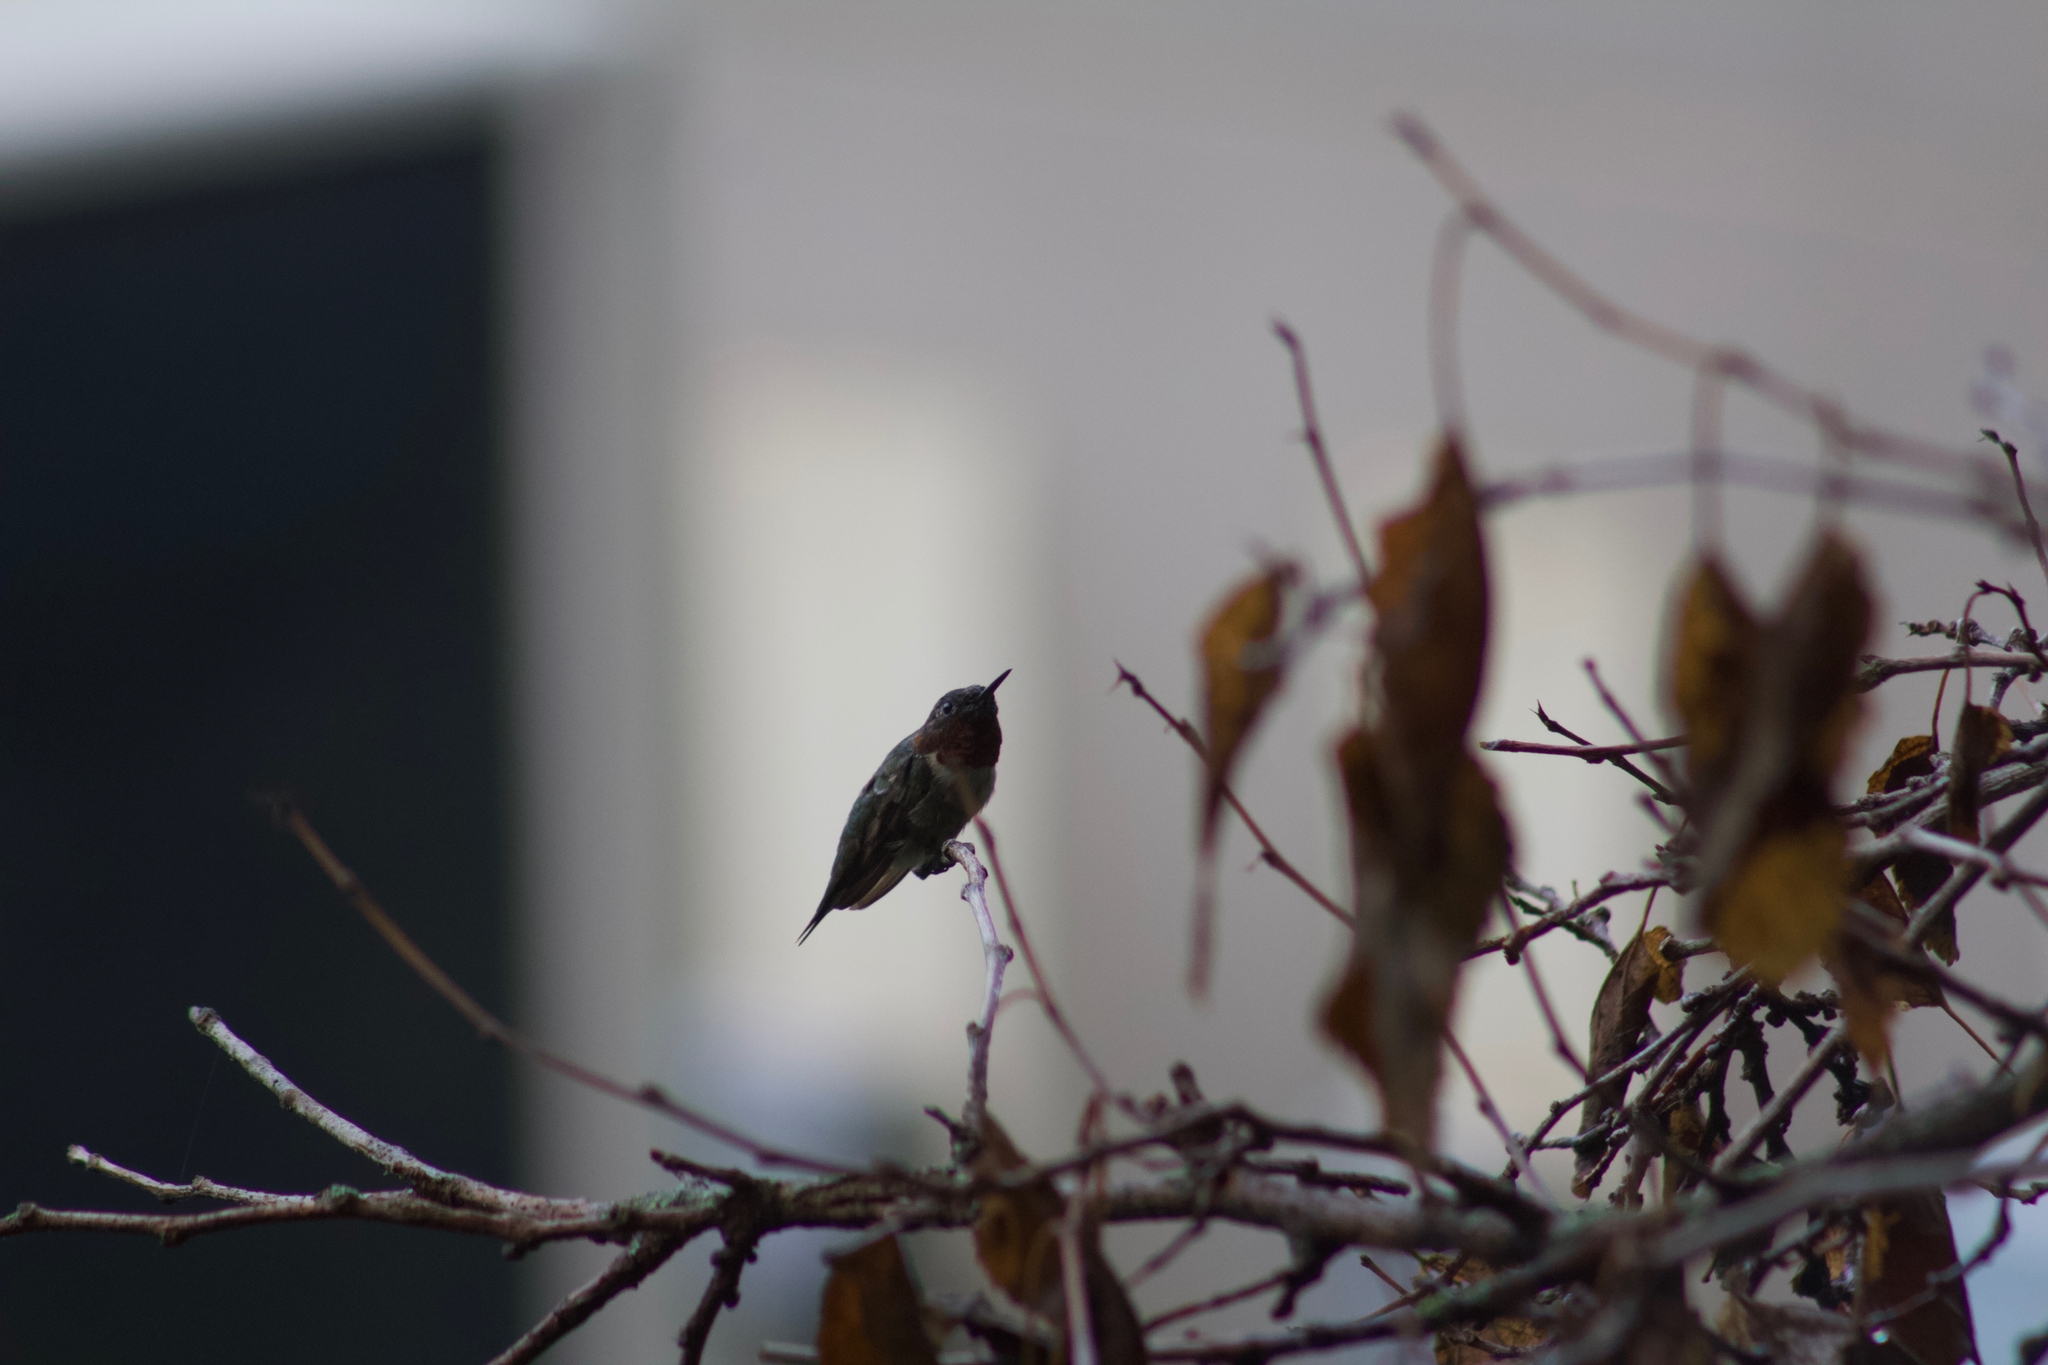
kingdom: Animalia
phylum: Chordata
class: Aves
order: Apodiformes
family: Trochilidae
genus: Archilochus
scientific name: Archilochus colubris
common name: Ruby-throated hummingbird
